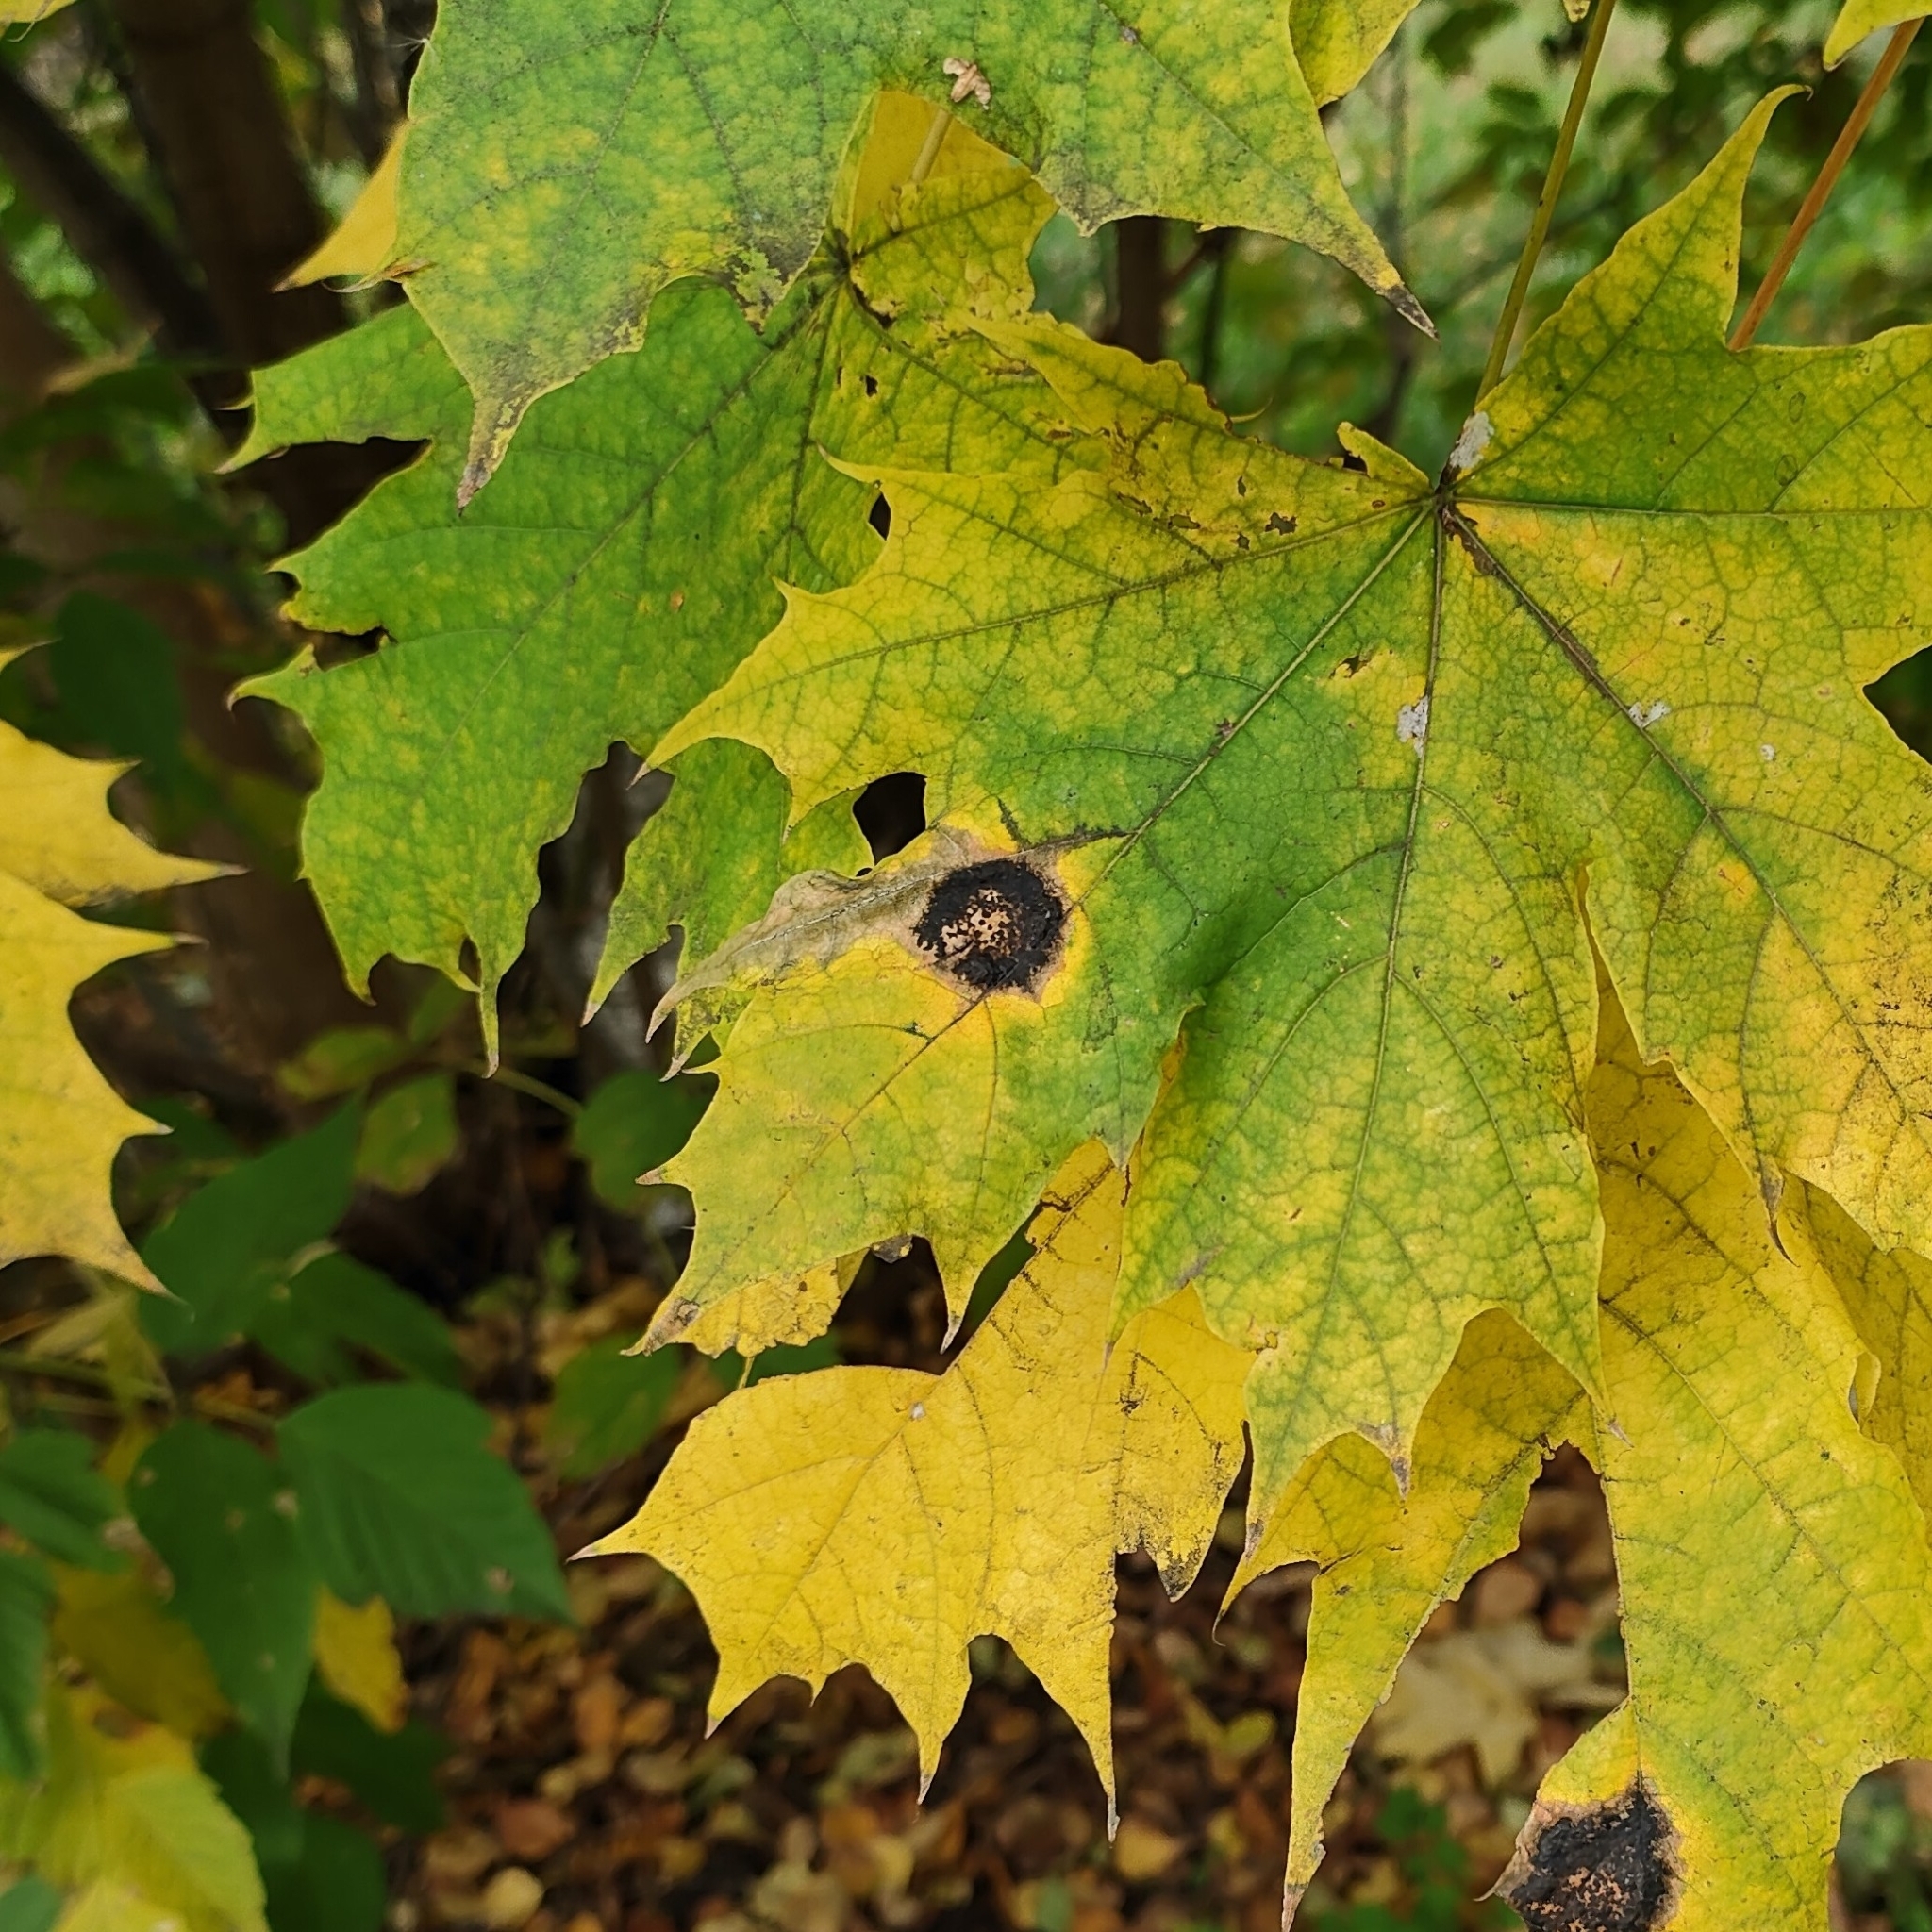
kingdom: Fungi
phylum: Ascomycota
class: Leotiomycetes
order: Rhytismatales
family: Rhytismataceae
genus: Rhytisma
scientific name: Rhytisma acerinum
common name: European tar spot
